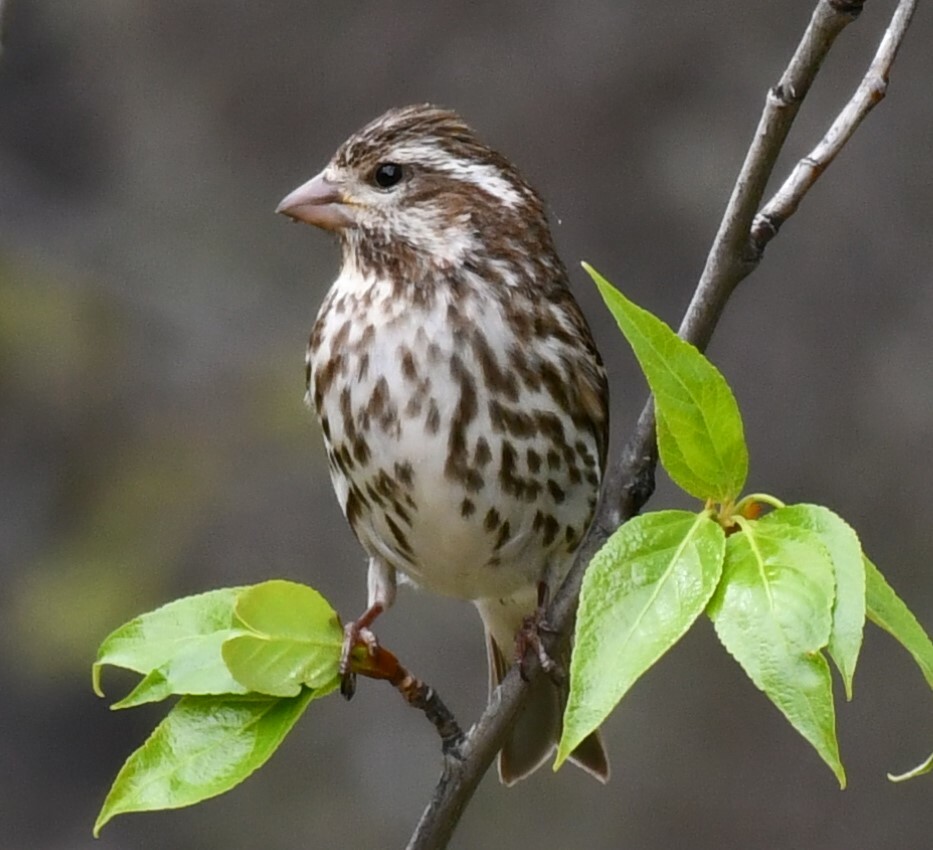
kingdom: Animalia
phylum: Chordata
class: Aves
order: Passeriformes
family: Fringillidae
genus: Haemorhous
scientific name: Haemorhous purpureus
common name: Purple finch
